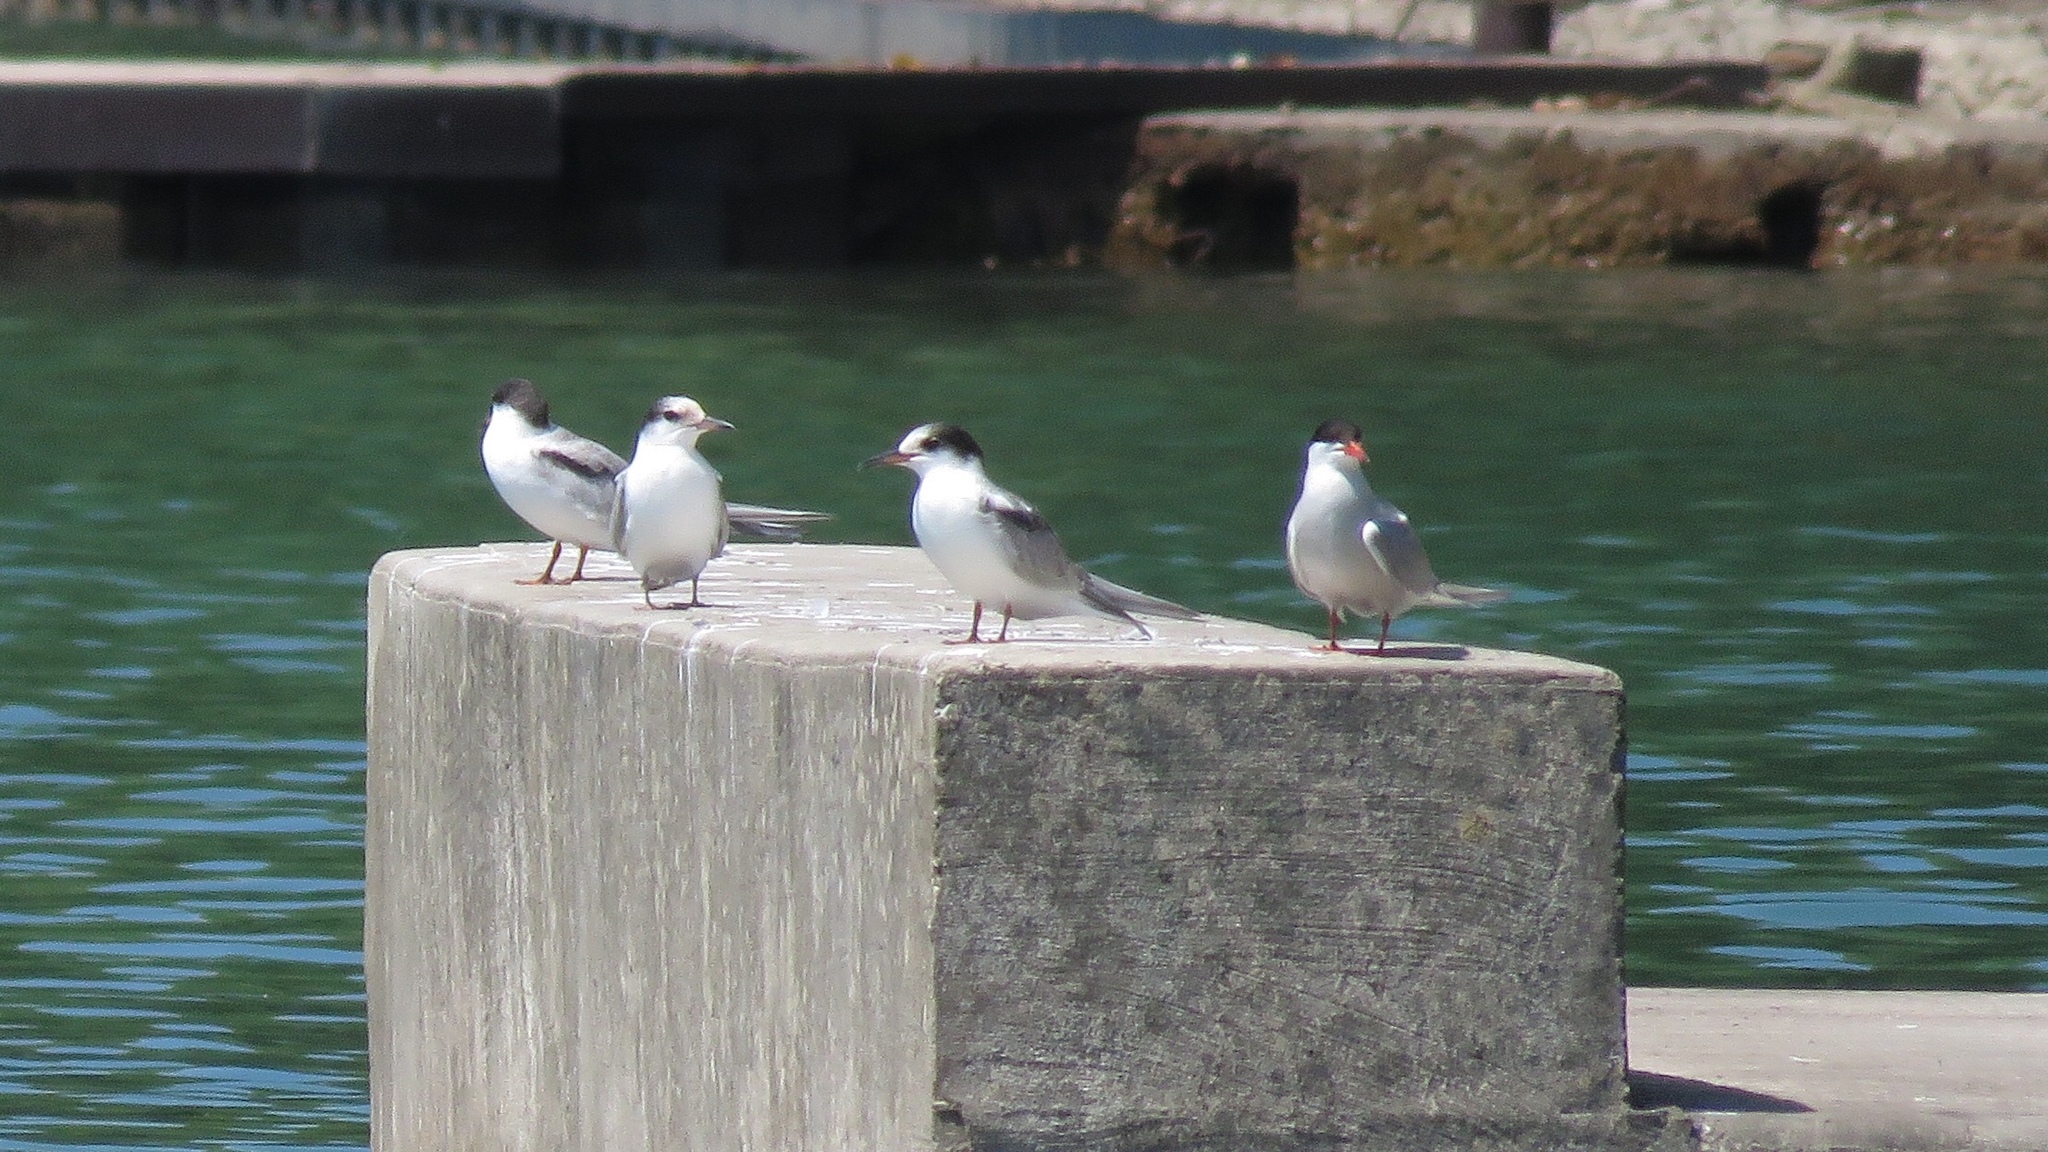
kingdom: Animalia
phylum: Chordata
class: Aves
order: Charadriiformes
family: Laridae
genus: Sterna
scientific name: Sterna hirundo
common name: Common tern
